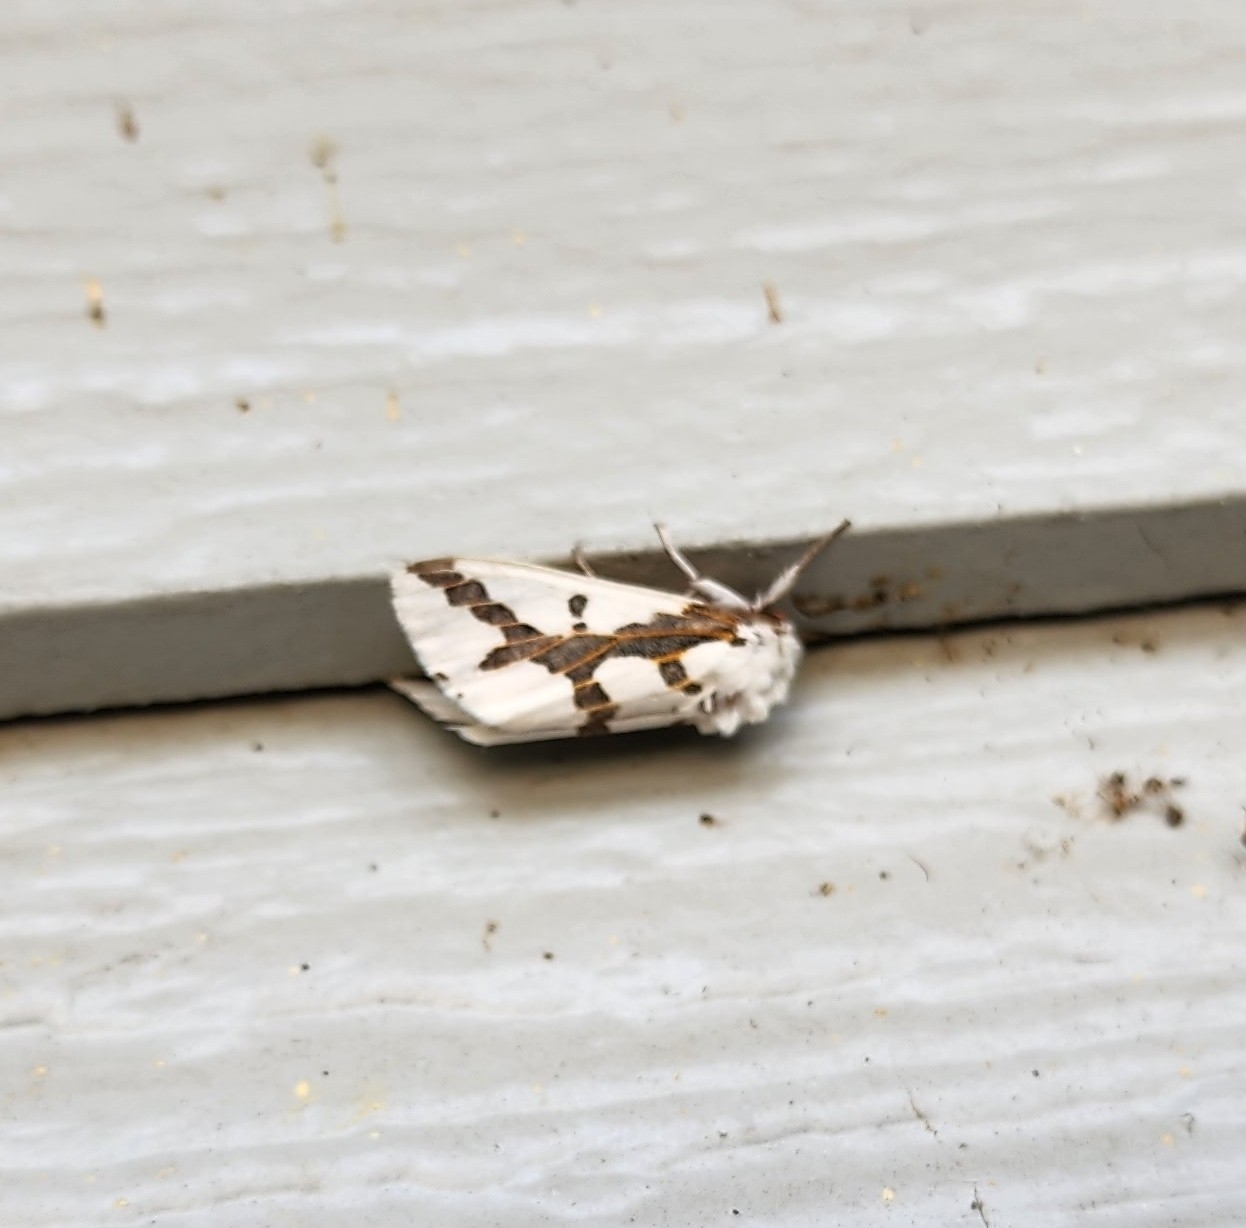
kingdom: Animalia
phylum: Arthropoda
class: Insecta
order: Lepidoptera
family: Erebidae
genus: Euerythra
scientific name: Euerythra phasma
